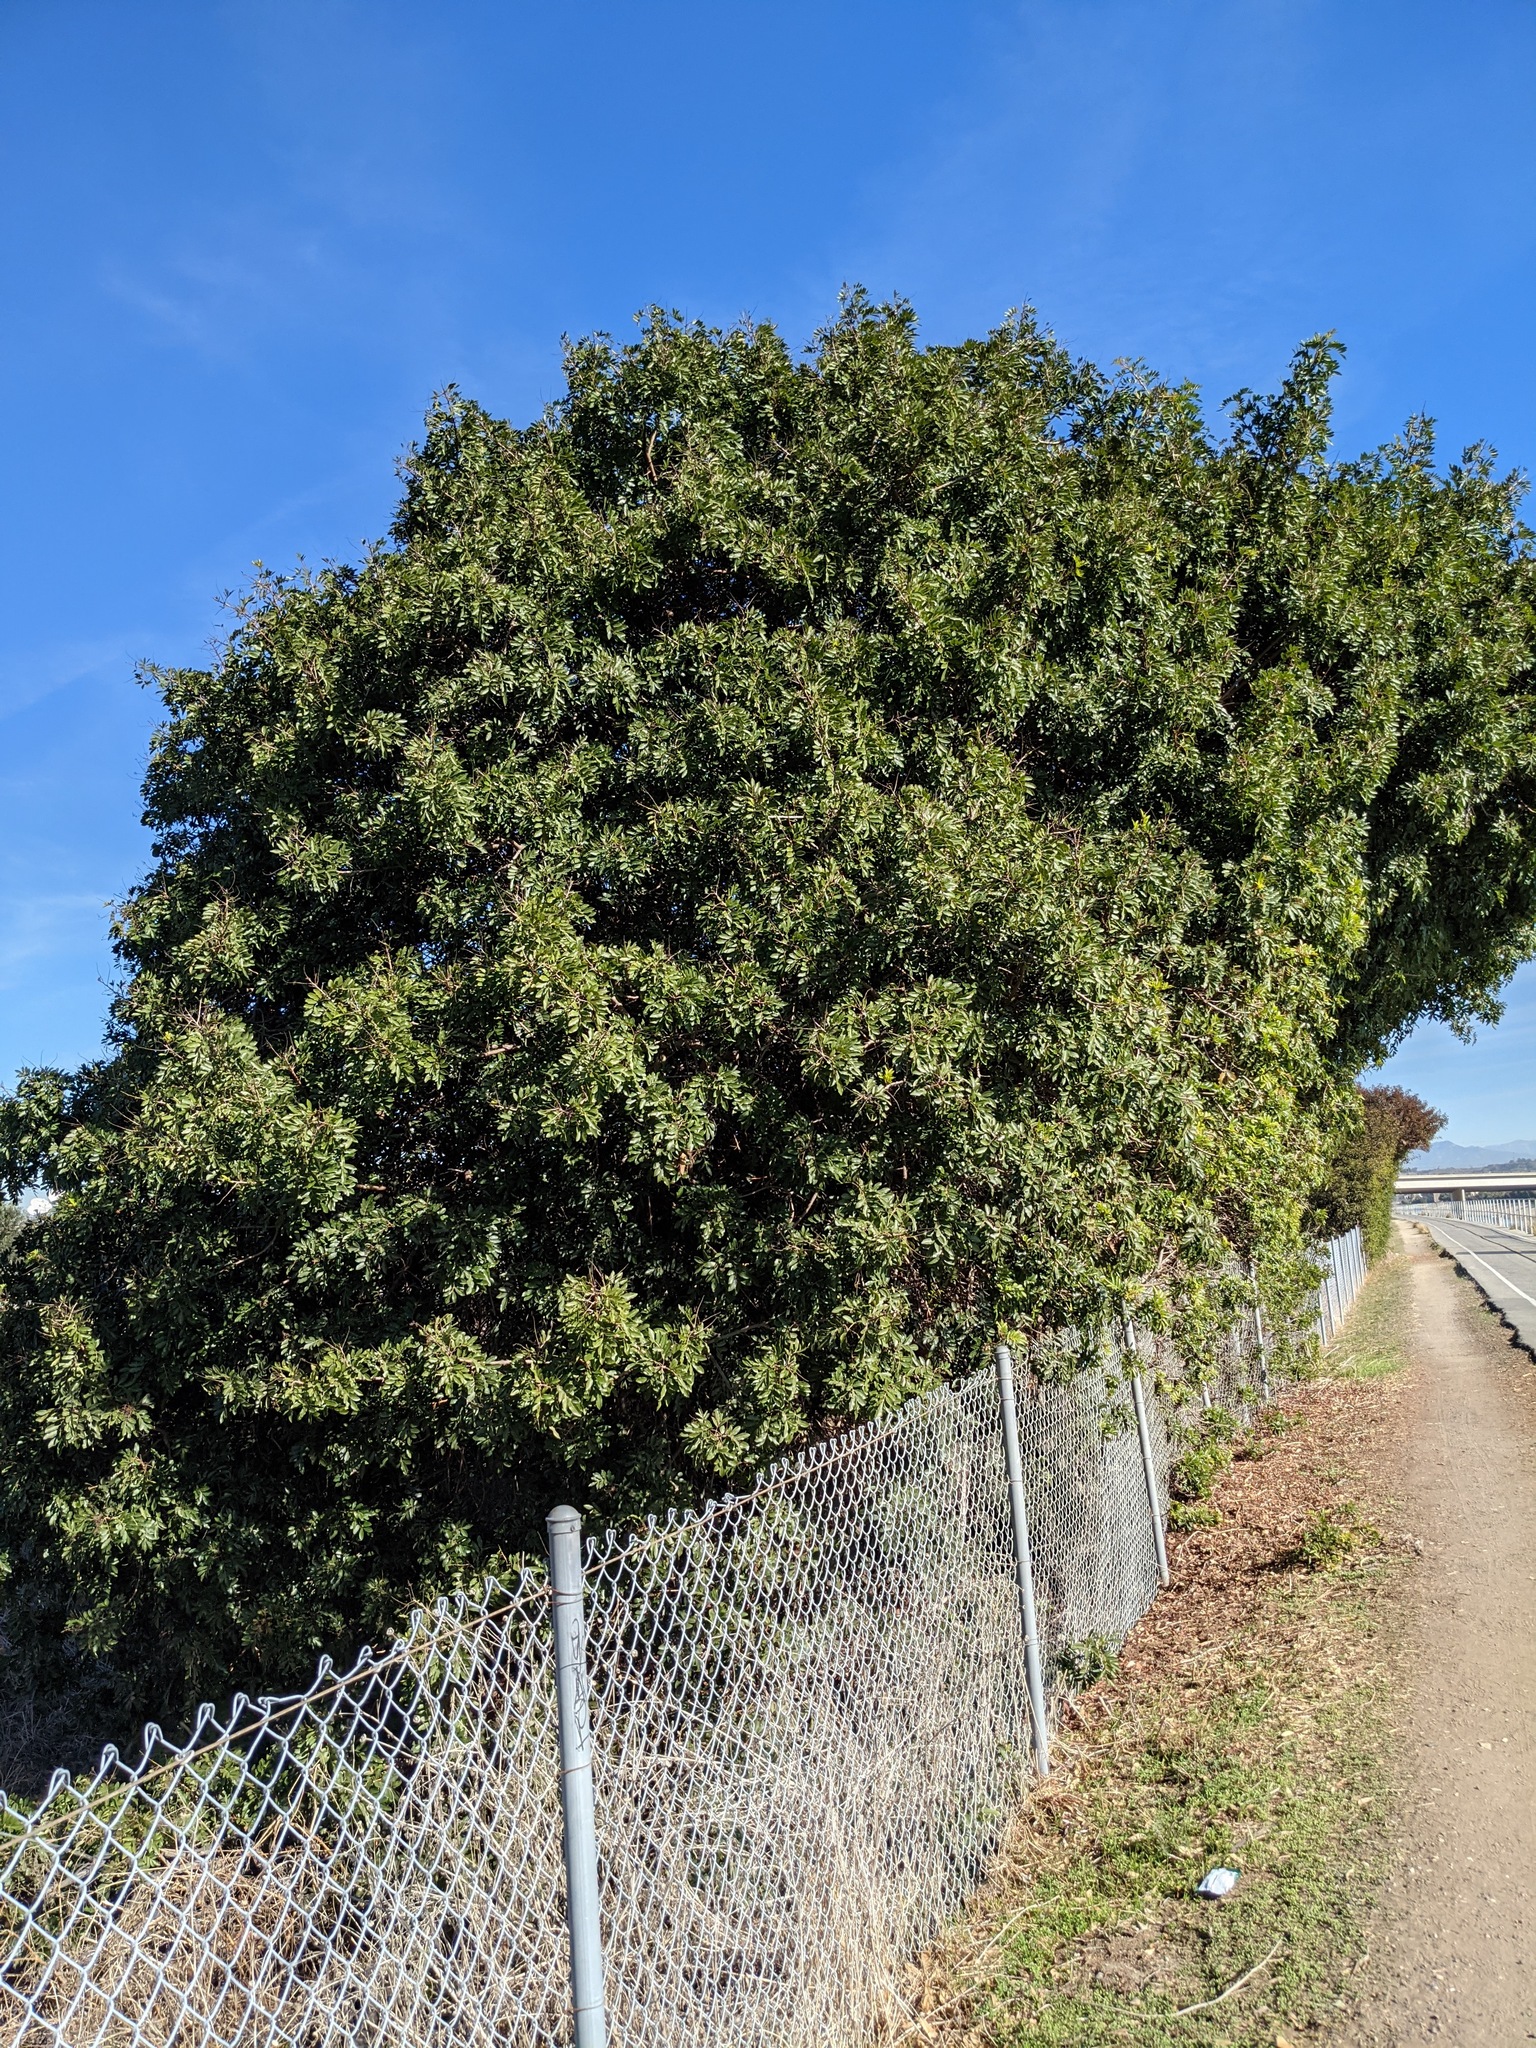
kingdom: Plantae
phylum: Tracheophyta
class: Magnoliopsida
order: Sapindales
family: Anacardiaceae
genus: Schinus
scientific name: Schinus terebinthifolia
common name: Brazilian peppertree
